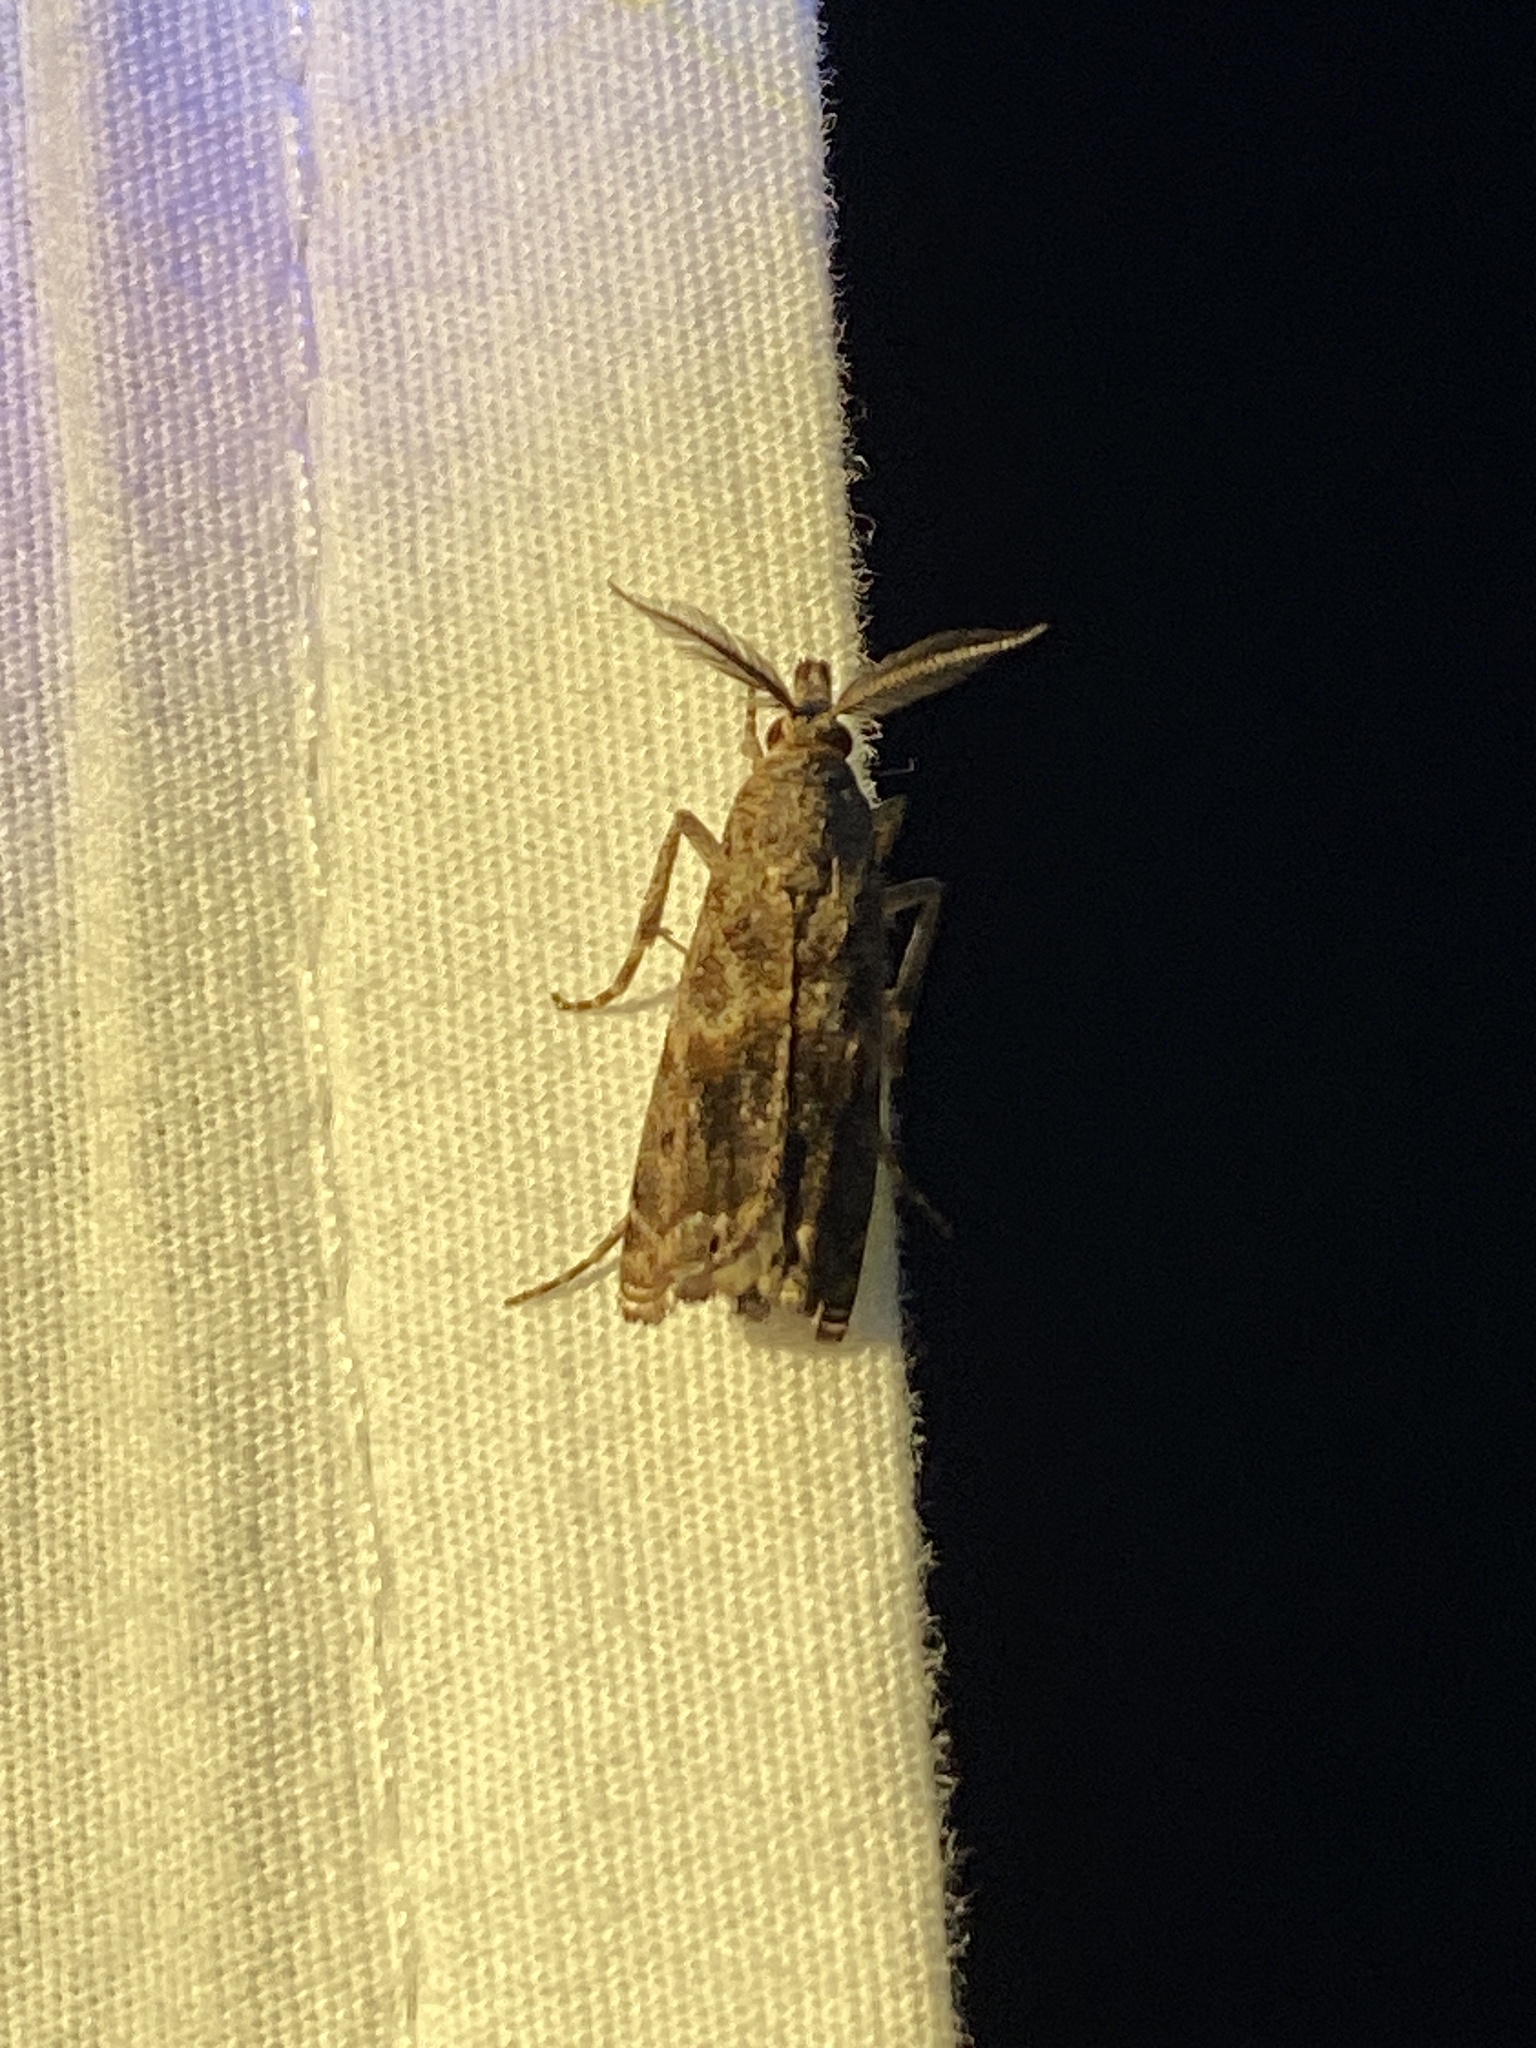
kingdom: Animalia
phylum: Arthropoda
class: Insecta
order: Lepidoptera
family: Crambidae
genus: Prionapteryx
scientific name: Prionapteryx
